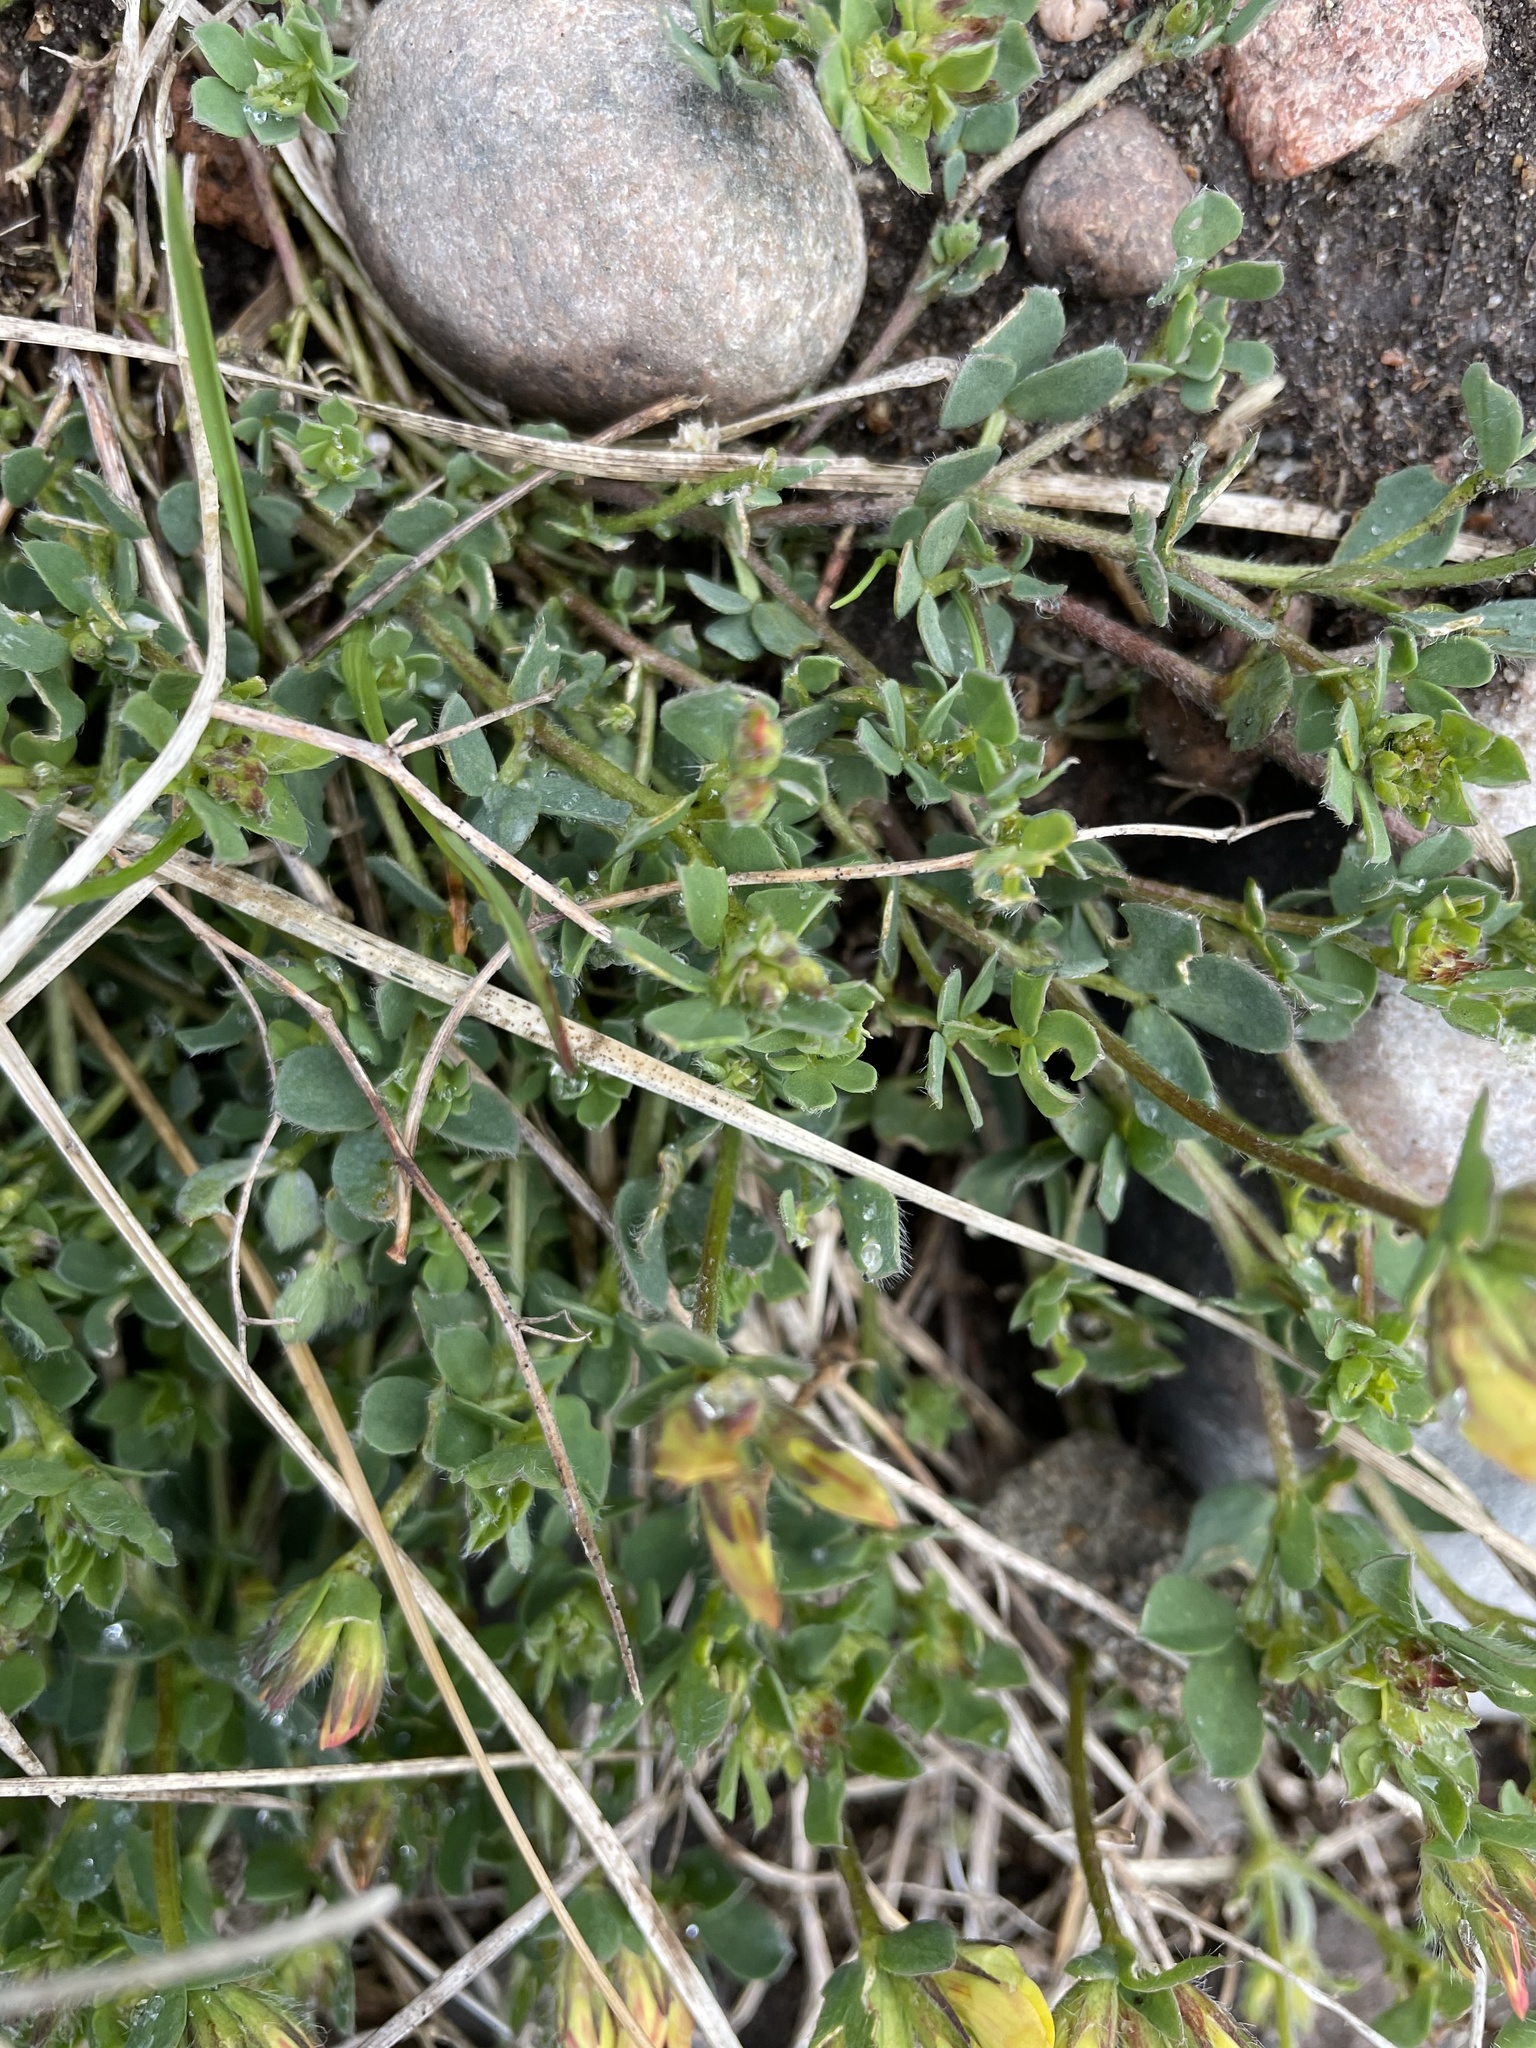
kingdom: Plantae
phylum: Tracheophyta
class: Magnoliopsida
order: Fabales
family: Fabaceae
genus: Lotus
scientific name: Lotus corniculatus
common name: Common bird's-foot-trefoil
